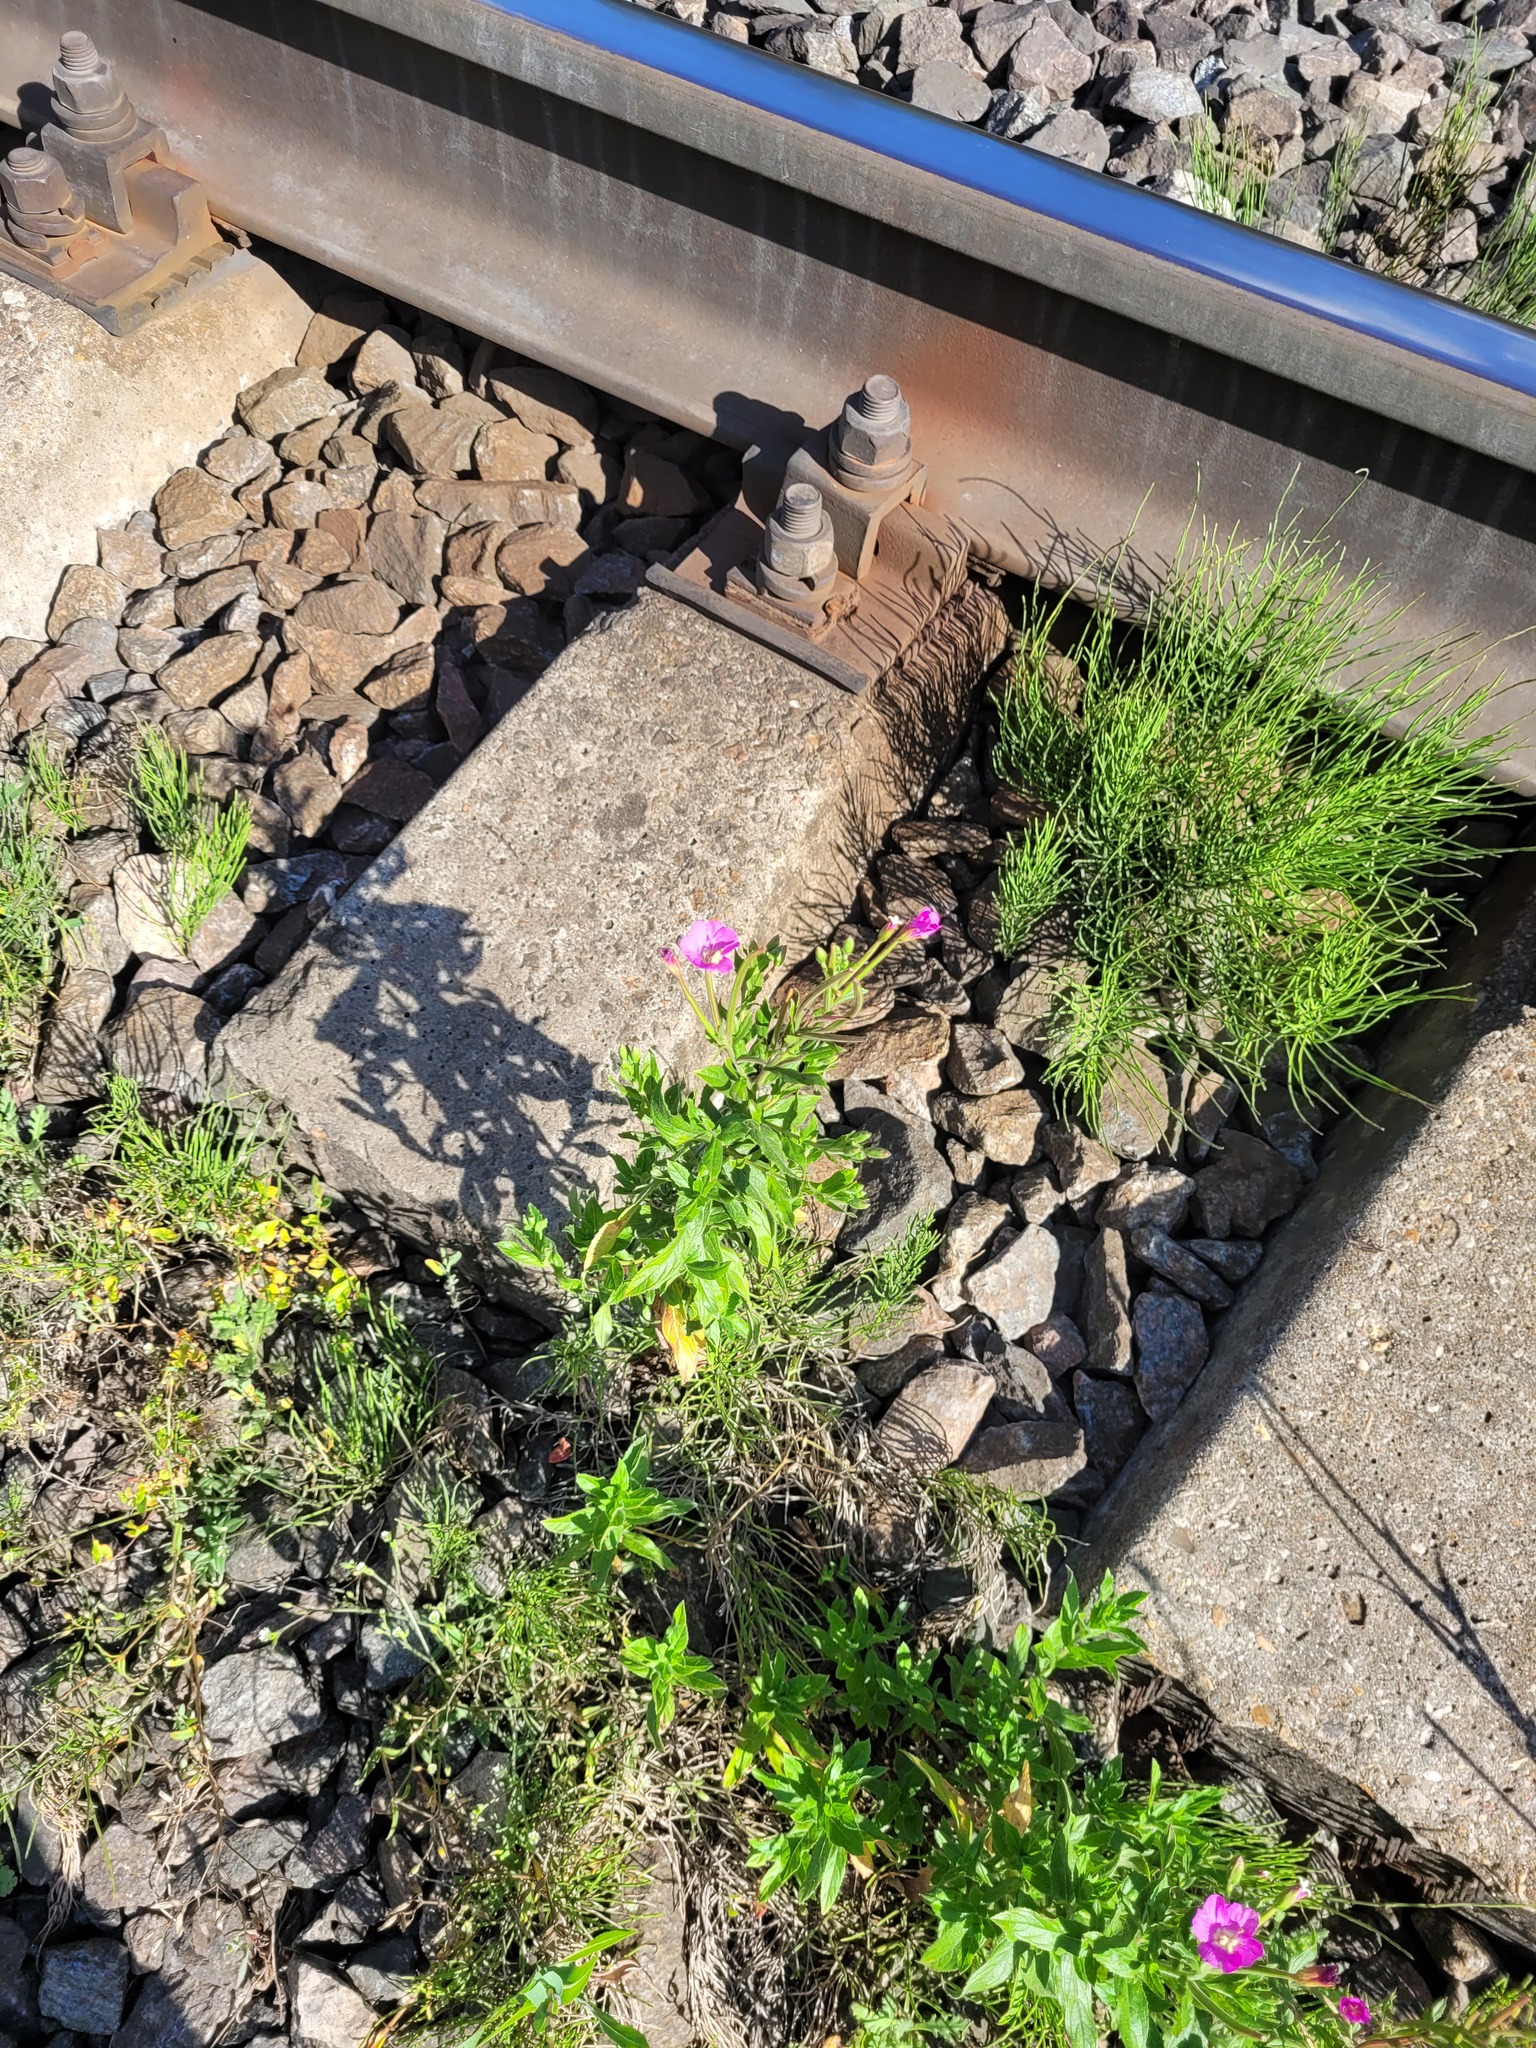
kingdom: Plantae
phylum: Tracheophyta
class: Magnoliopsida
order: Myrtales
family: Onagraceae
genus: Epilobium
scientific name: Epilobium hirsutum
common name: Great willowherb
